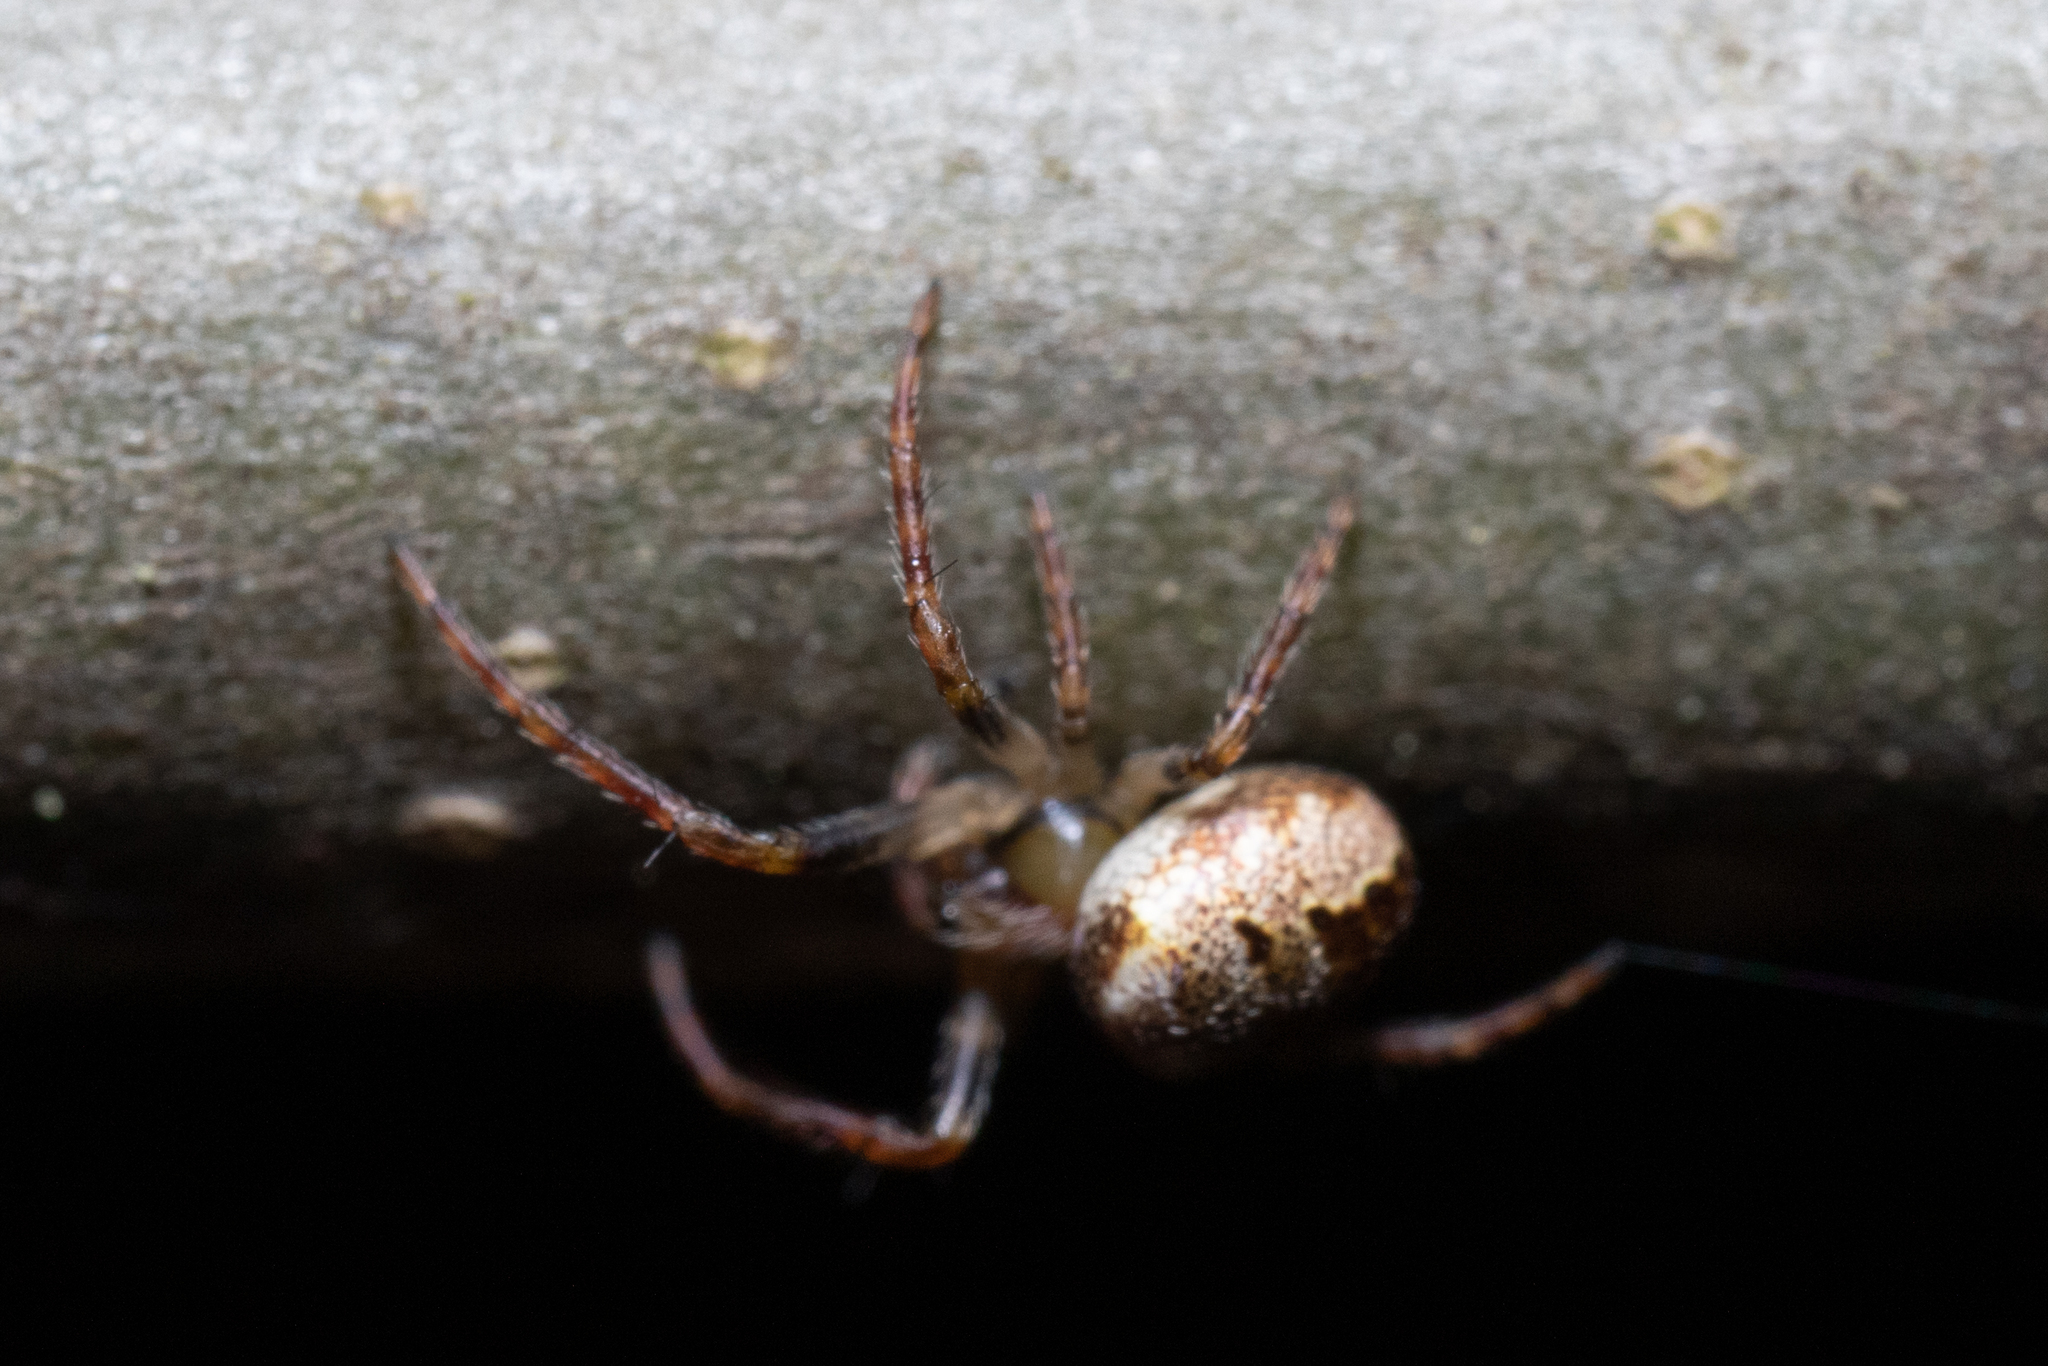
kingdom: Animalia
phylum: Arthropoda
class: Arachnida
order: Araneae
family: Araneidae
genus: Zilla
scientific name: Zilla diodia
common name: Zilla diodia
